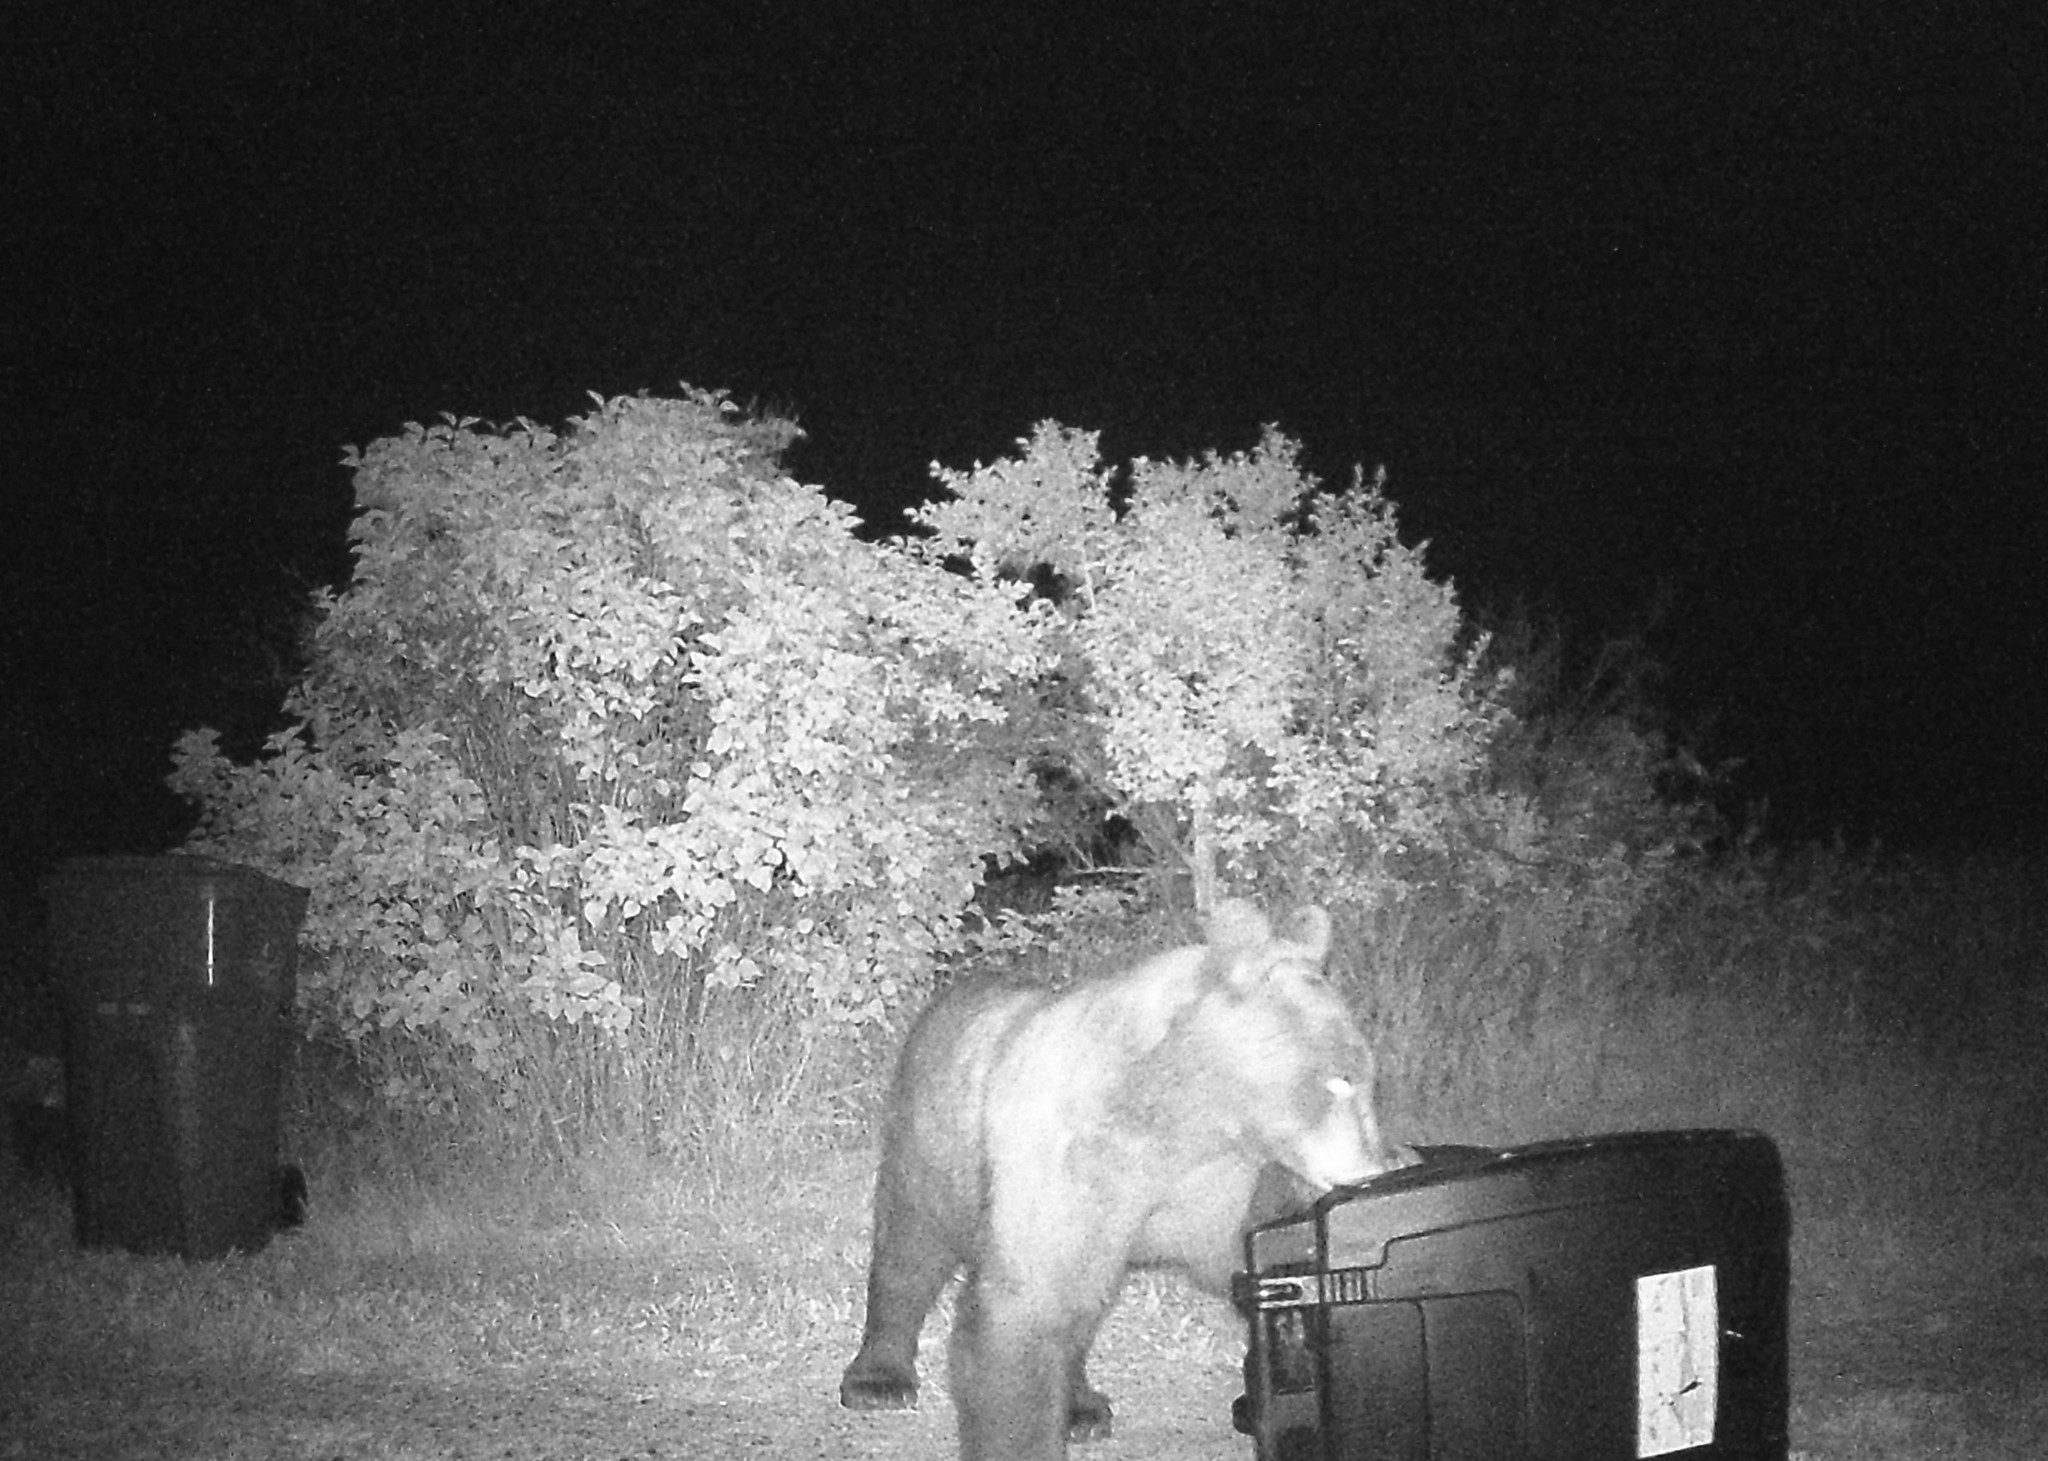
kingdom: Animalia
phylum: Chordata
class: Mammalia
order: Carnivora
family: Ursidae
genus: Ursus
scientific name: Ursus americanus
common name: American black bear
